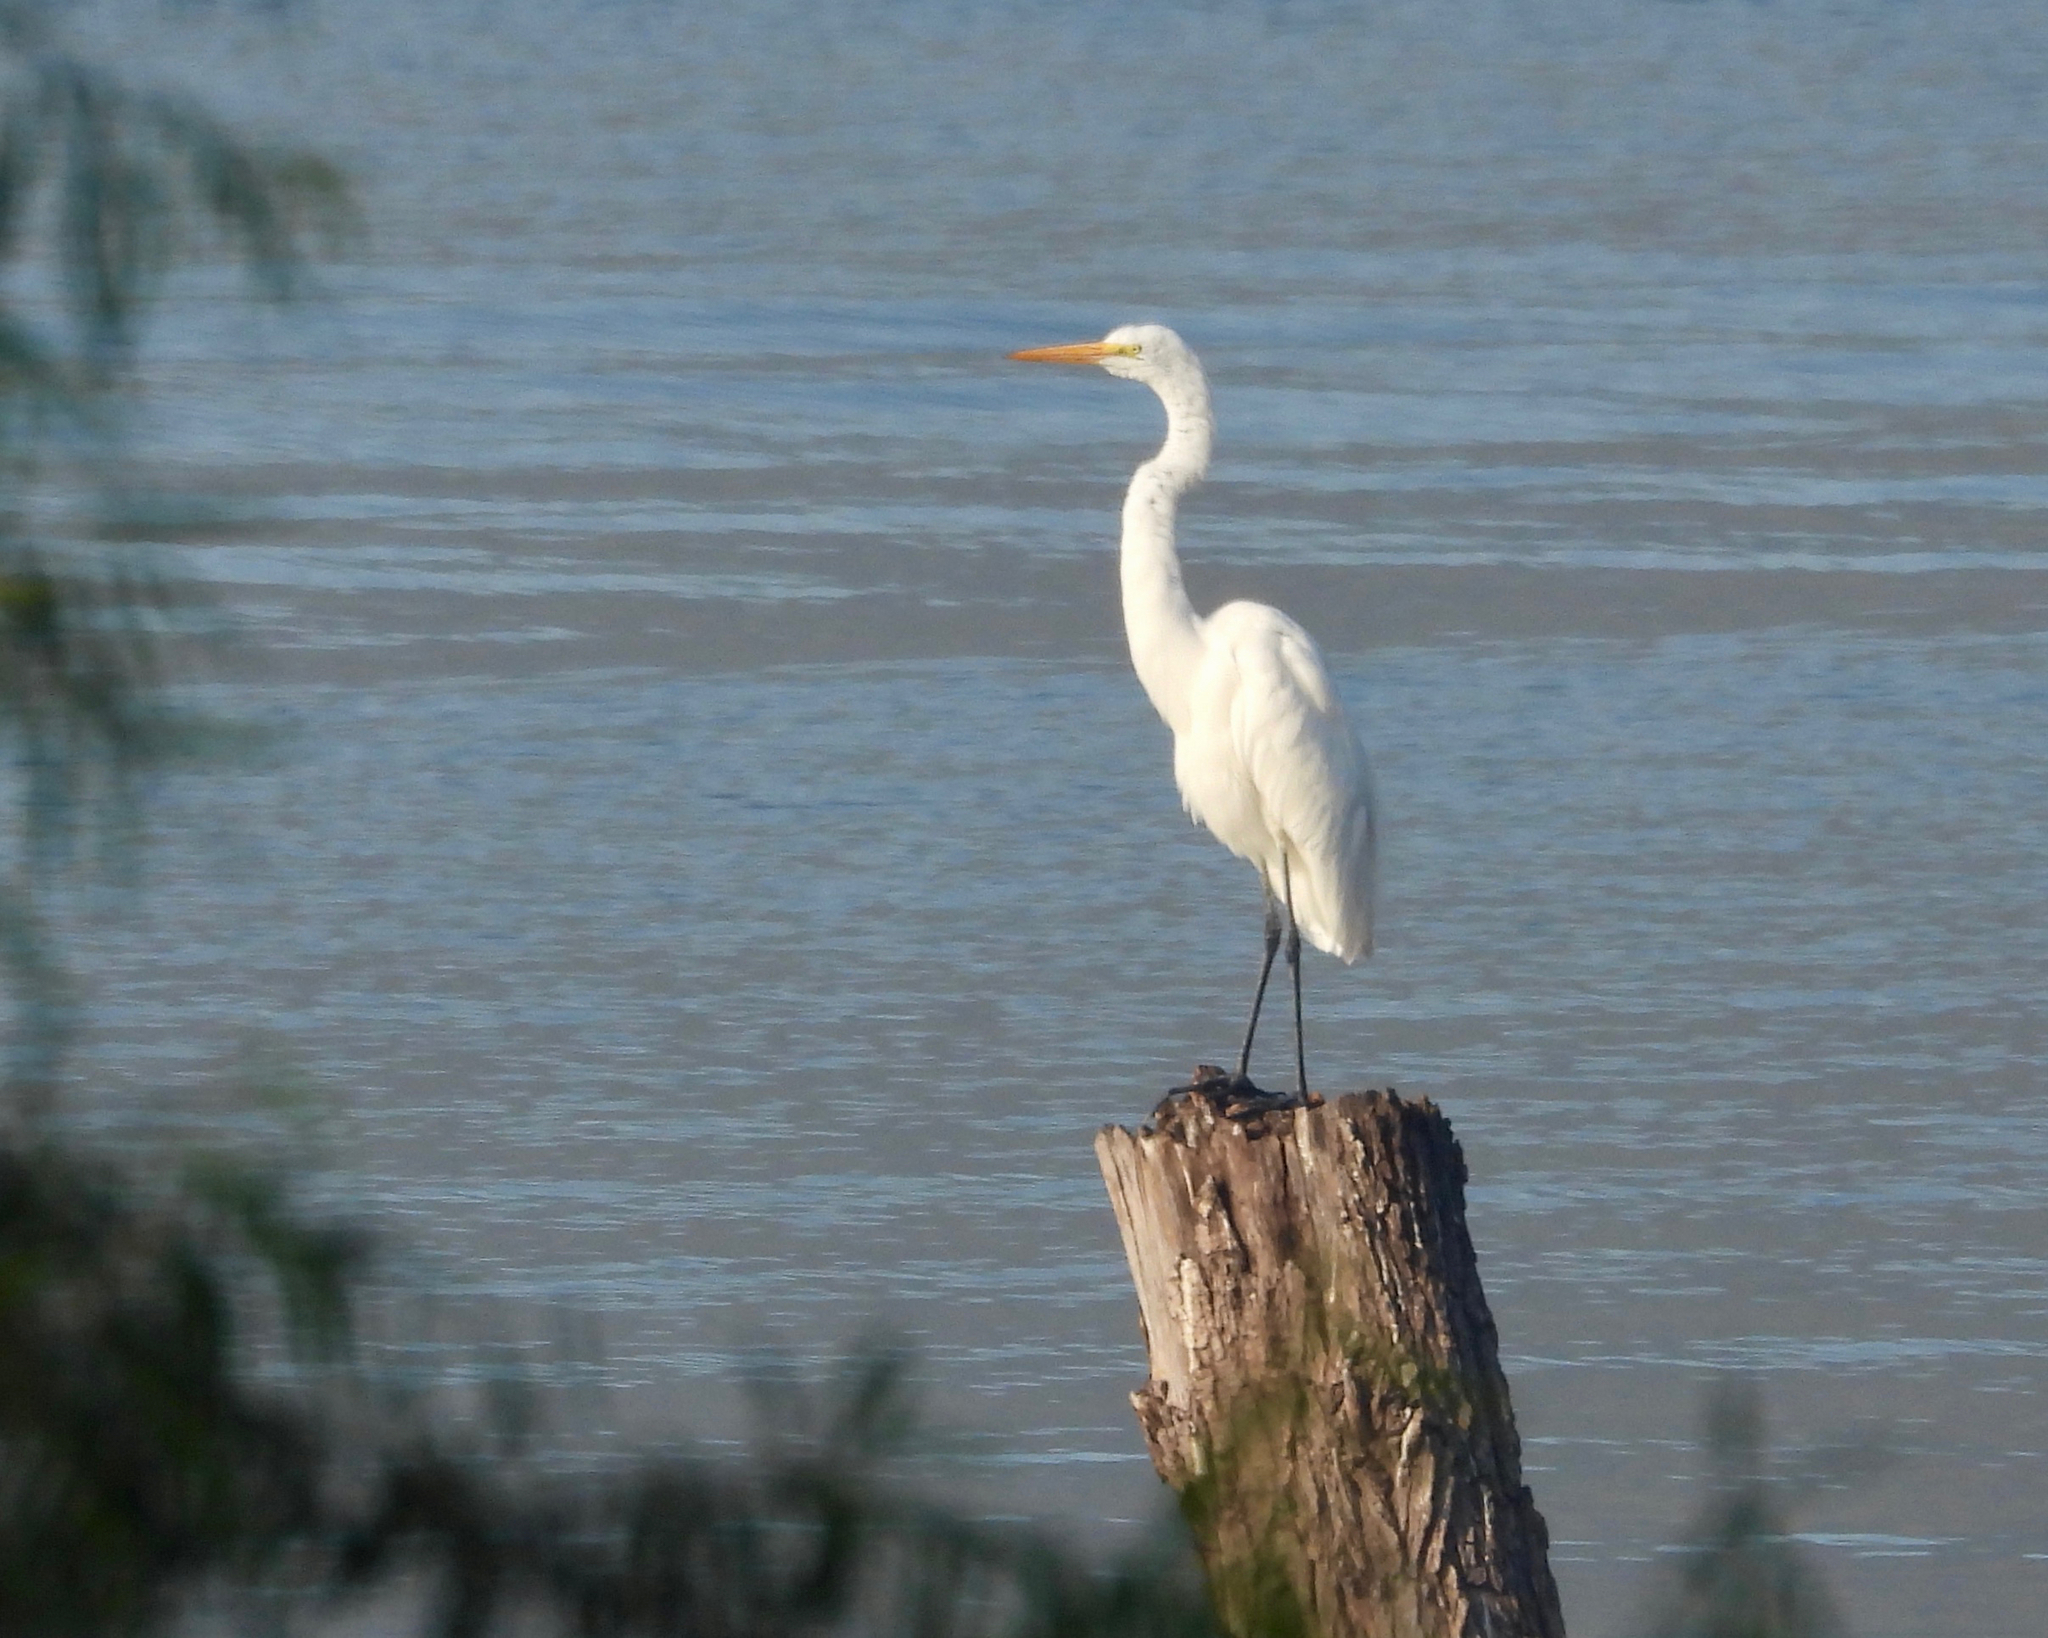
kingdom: Animalia
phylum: Chordata
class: Aves
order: Pelecaniformes
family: Ardeidae
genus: Ardea
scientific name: Ardea alba
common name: Great egret
